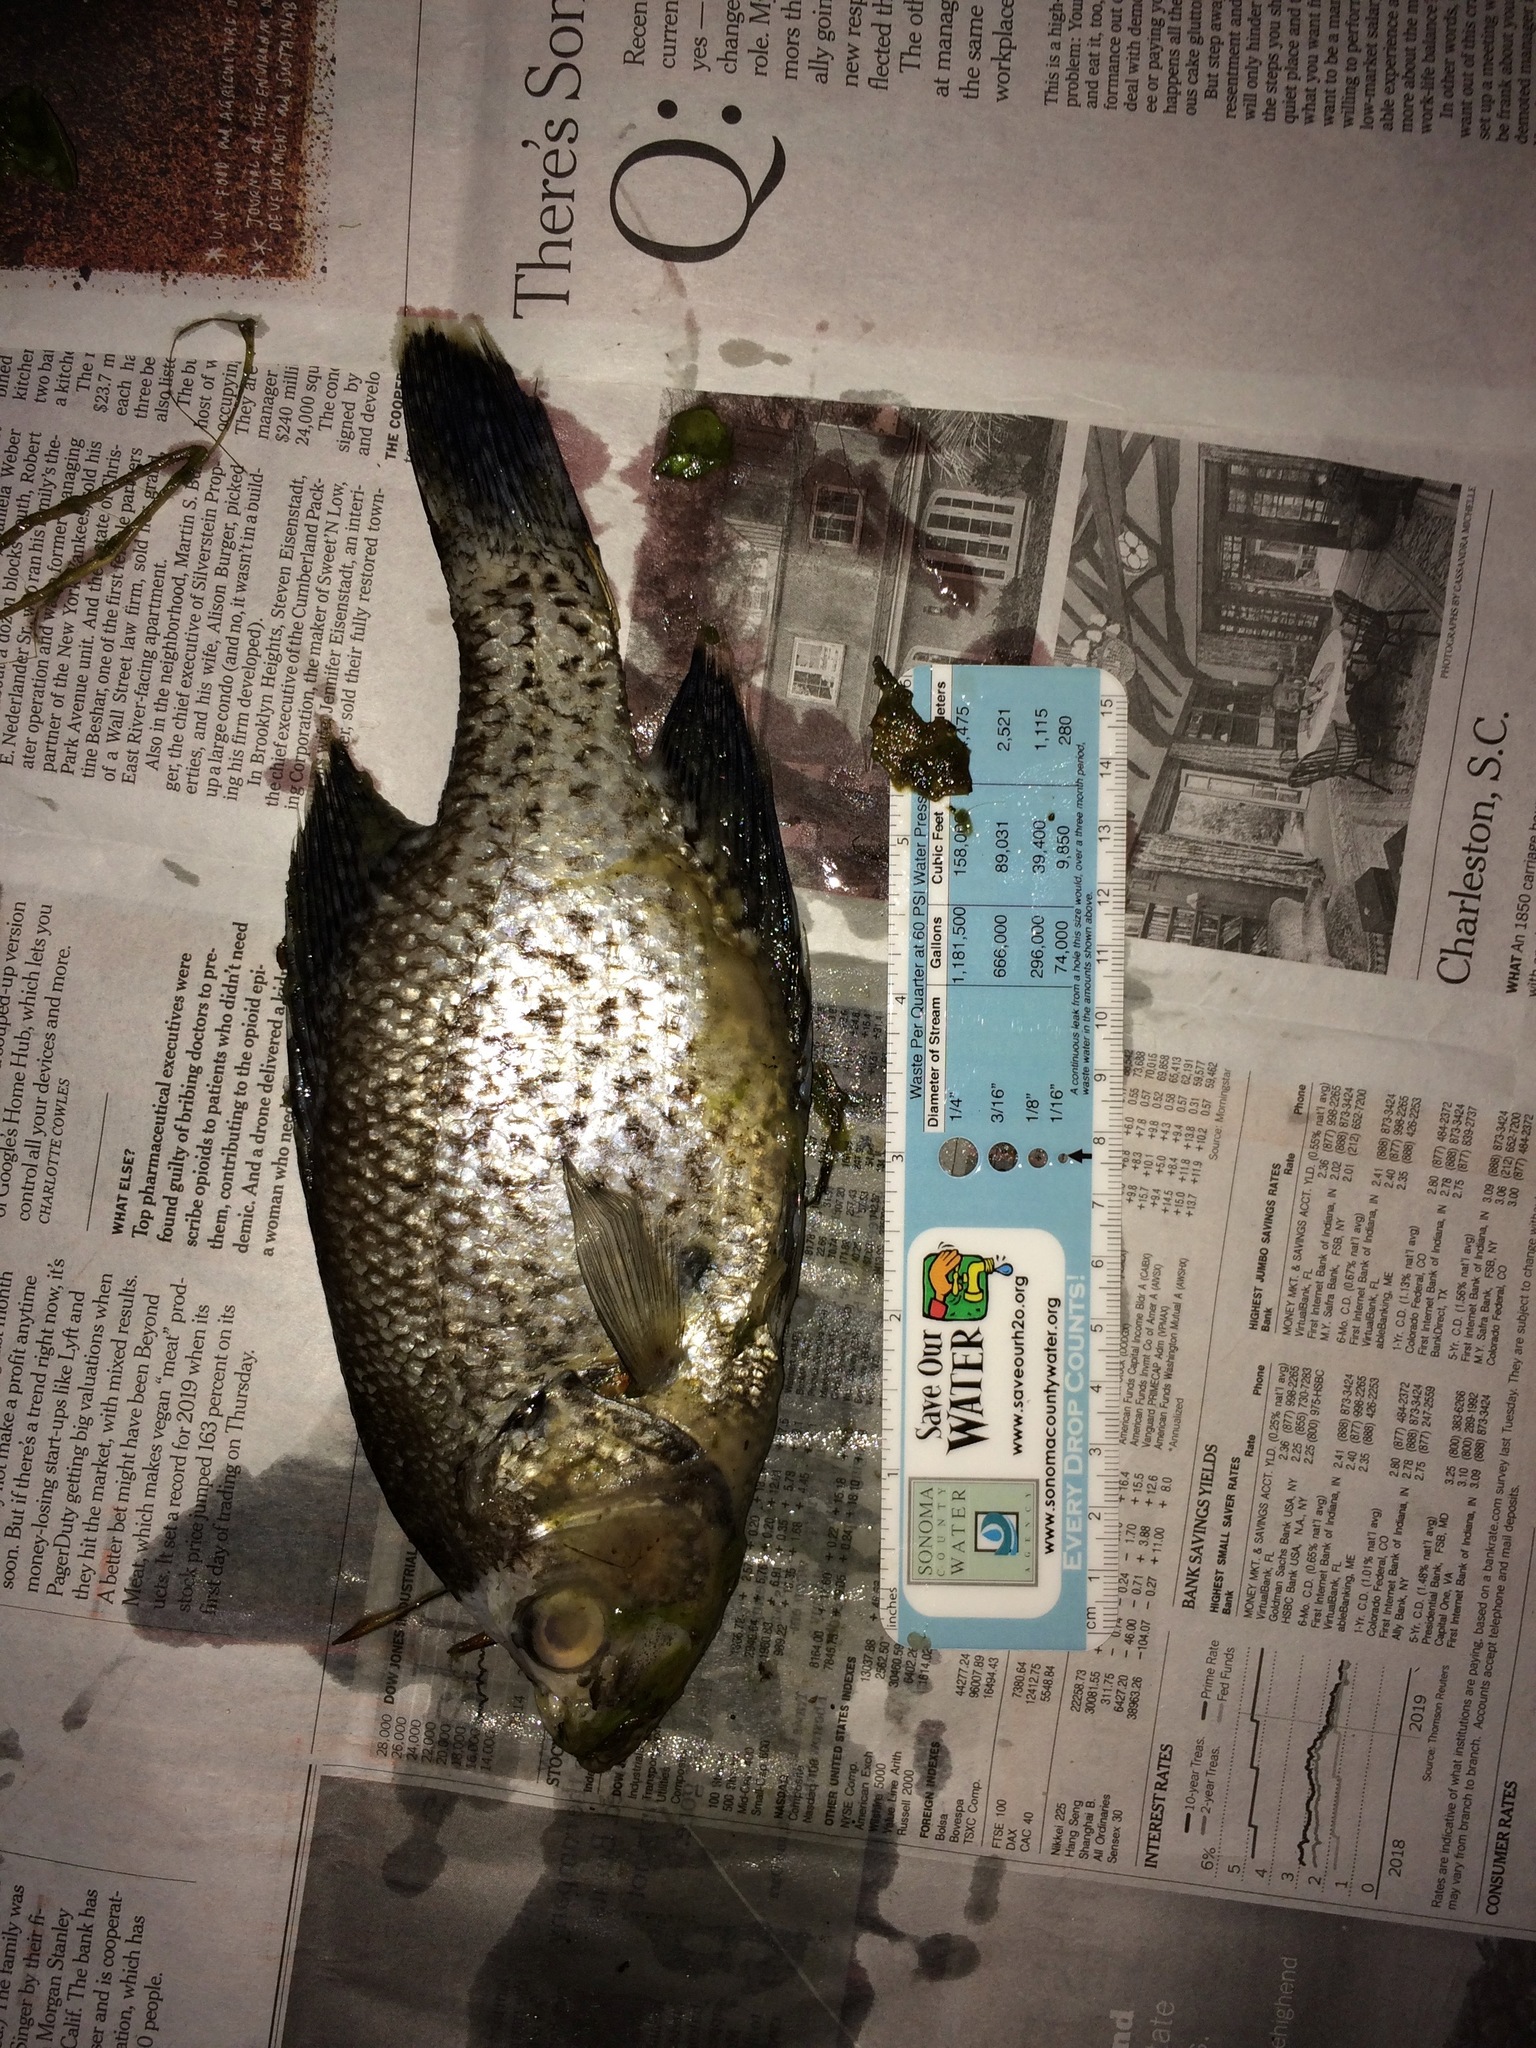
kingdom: Animalia
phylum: Chordata
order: Perciformes
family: Centrarchidae
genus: Pomoxis
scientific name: Pomoxis nigromaculatus
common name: Black crappie
